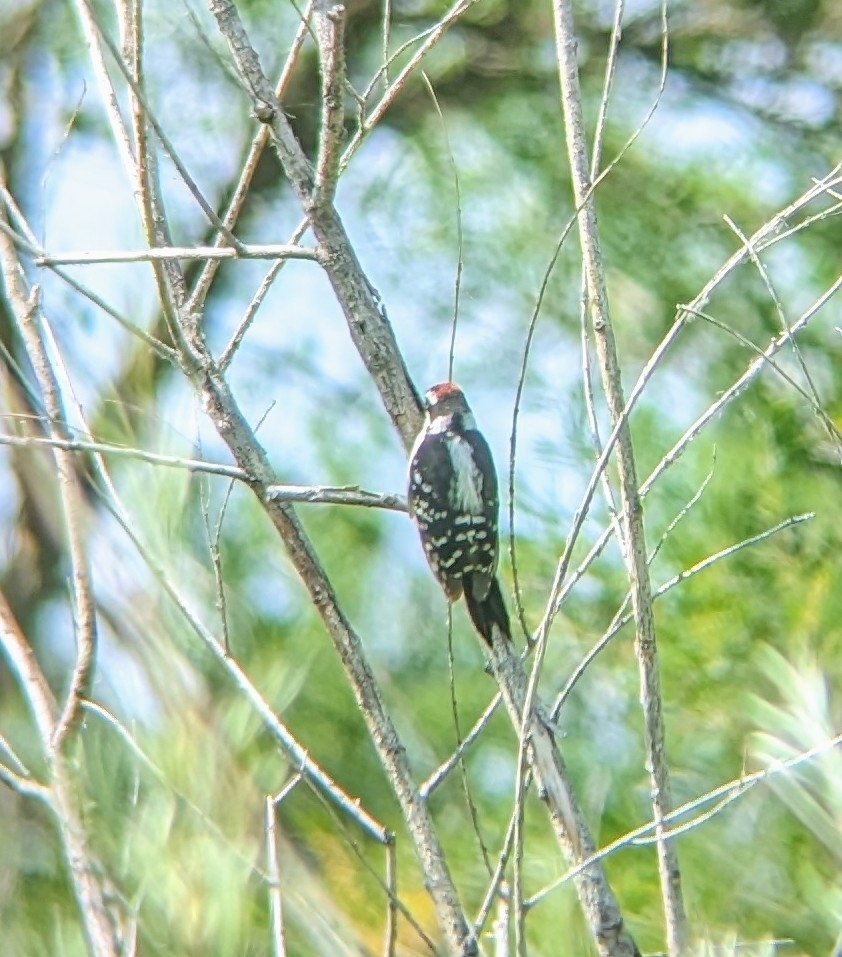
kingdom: Animalia
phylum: Chordata
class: Aves
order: Piciformes
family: Picidae
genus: Dryobates
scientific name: Dryobates pubescens
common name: Downy woodpecker
